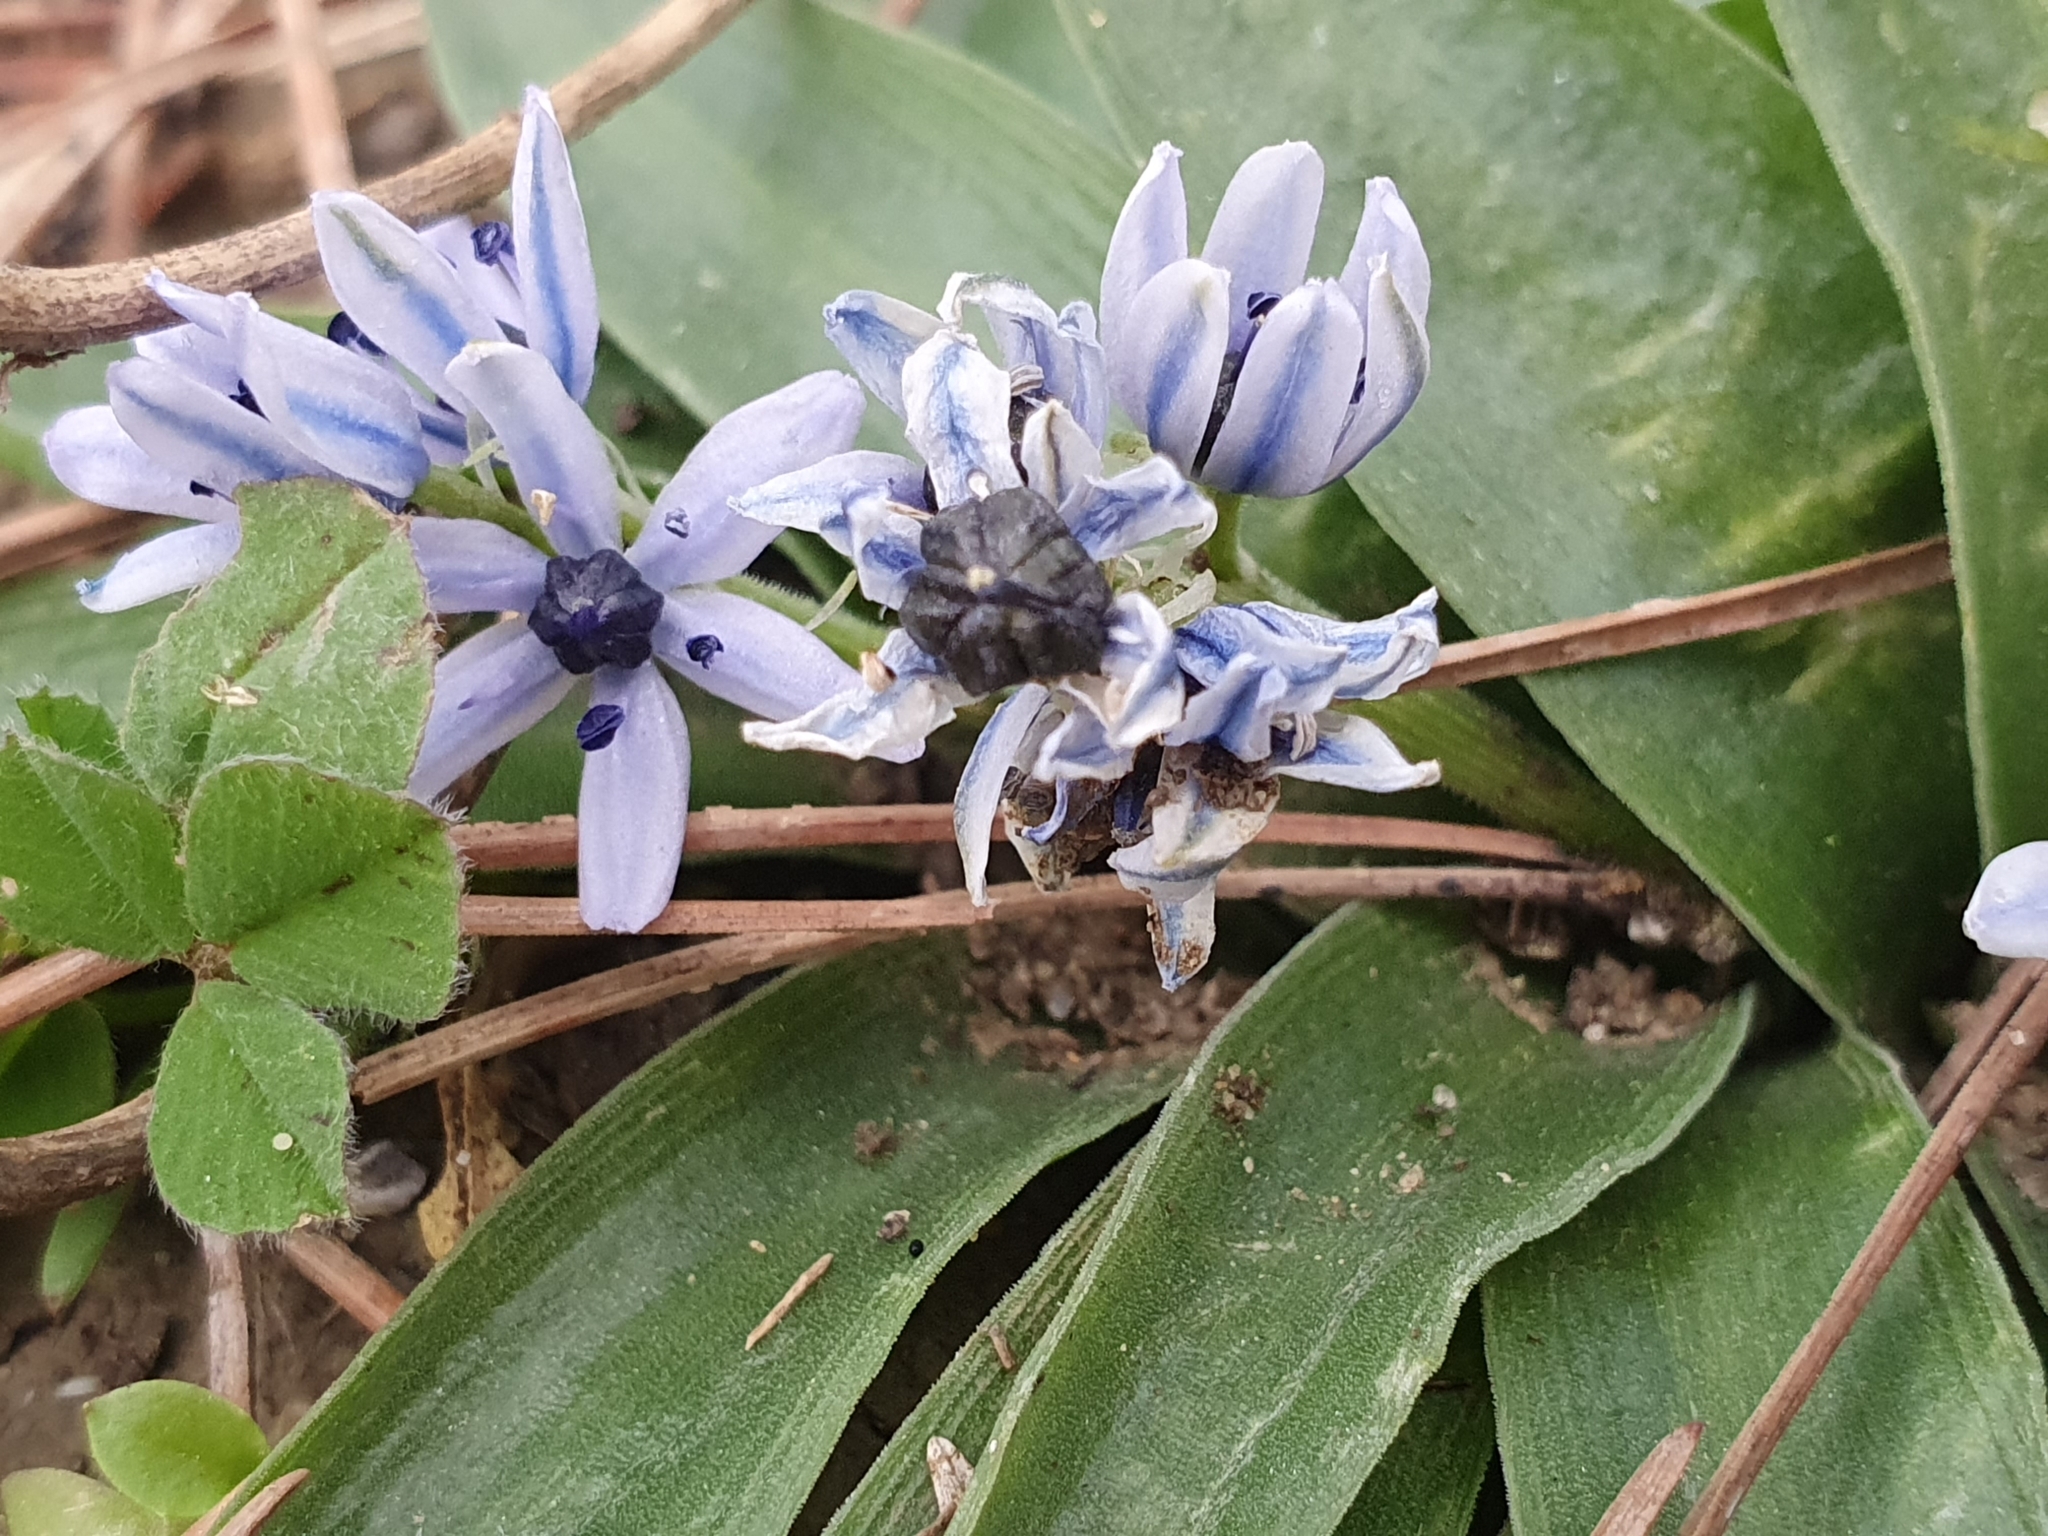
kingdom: Plantae
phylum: Tracheophyta
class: Liliopsida
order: Asparagales
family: Asparagaceae
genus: Hyacinthoides
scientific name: Hyacinthoides lingulata
